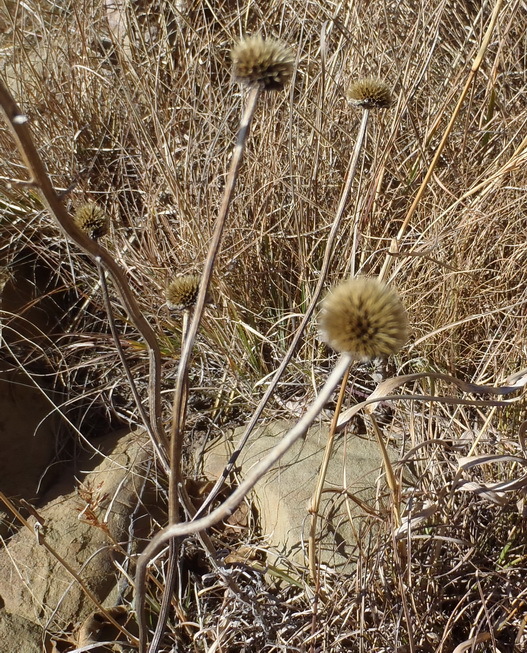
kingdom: Plantae
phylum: Tracheophyta
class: Magnoliopsida
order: Asterales
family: Asteraceae
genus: Berkheya
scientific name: Berkheya setifera
